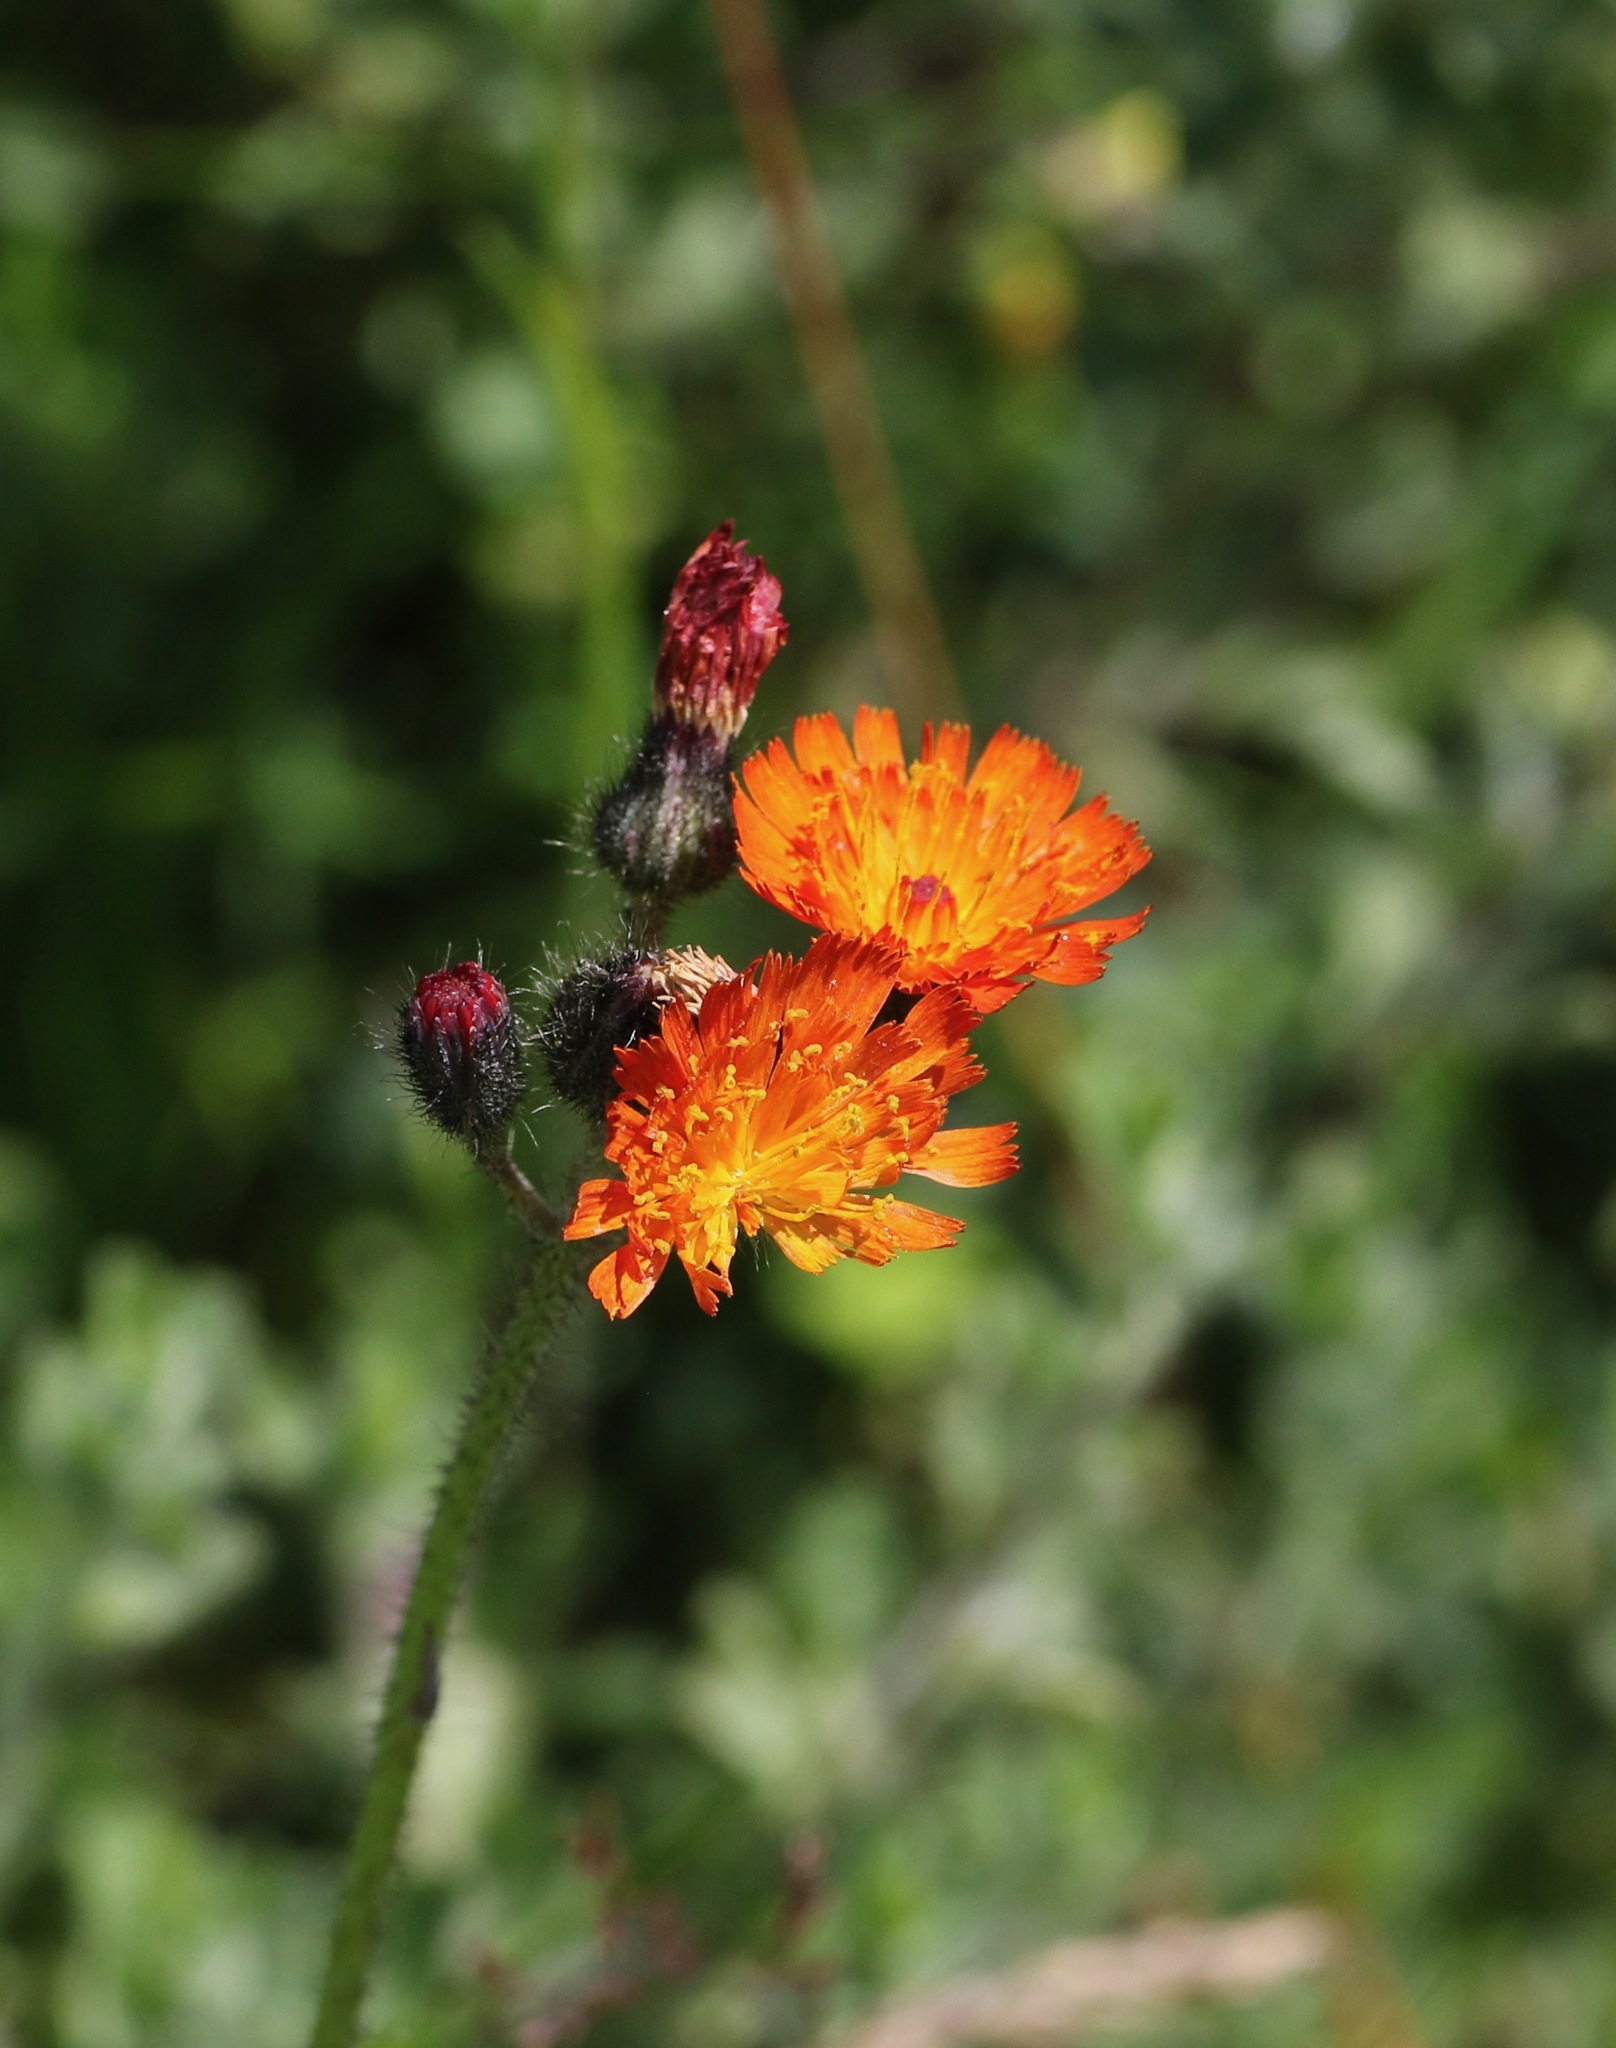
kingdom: Plantae
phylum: Tracheophyta
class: Magnoliopsida
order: Asterales
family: Asteraceae
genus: Pilosella
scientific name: Pilosella aurantiaca
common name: Fox-and-cubs
